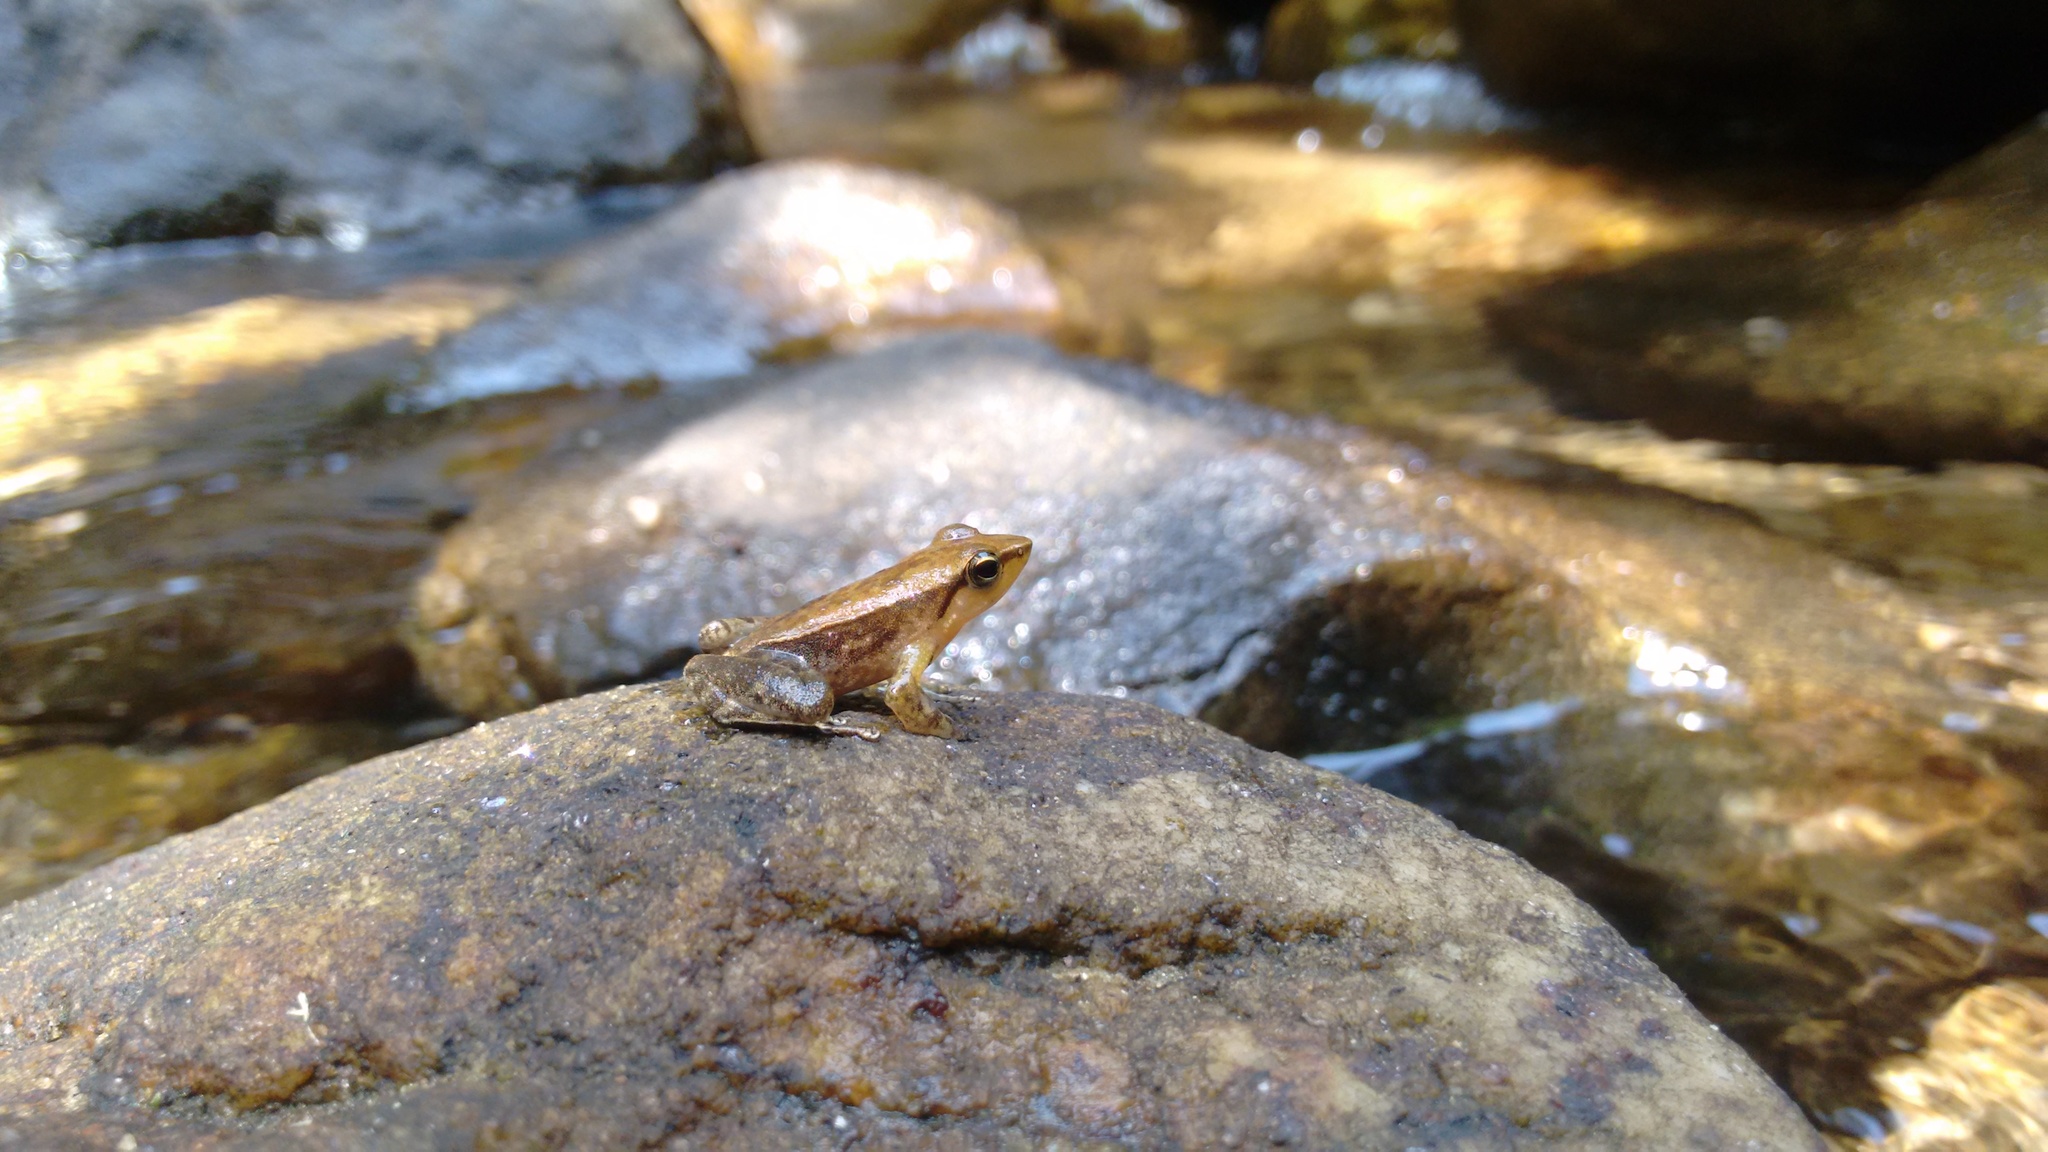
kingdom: Animalia
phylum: Chordata
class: Amphibia
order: Anura
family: Micrixalidae
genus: Micrixalus
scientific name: Micrixalus herrei
